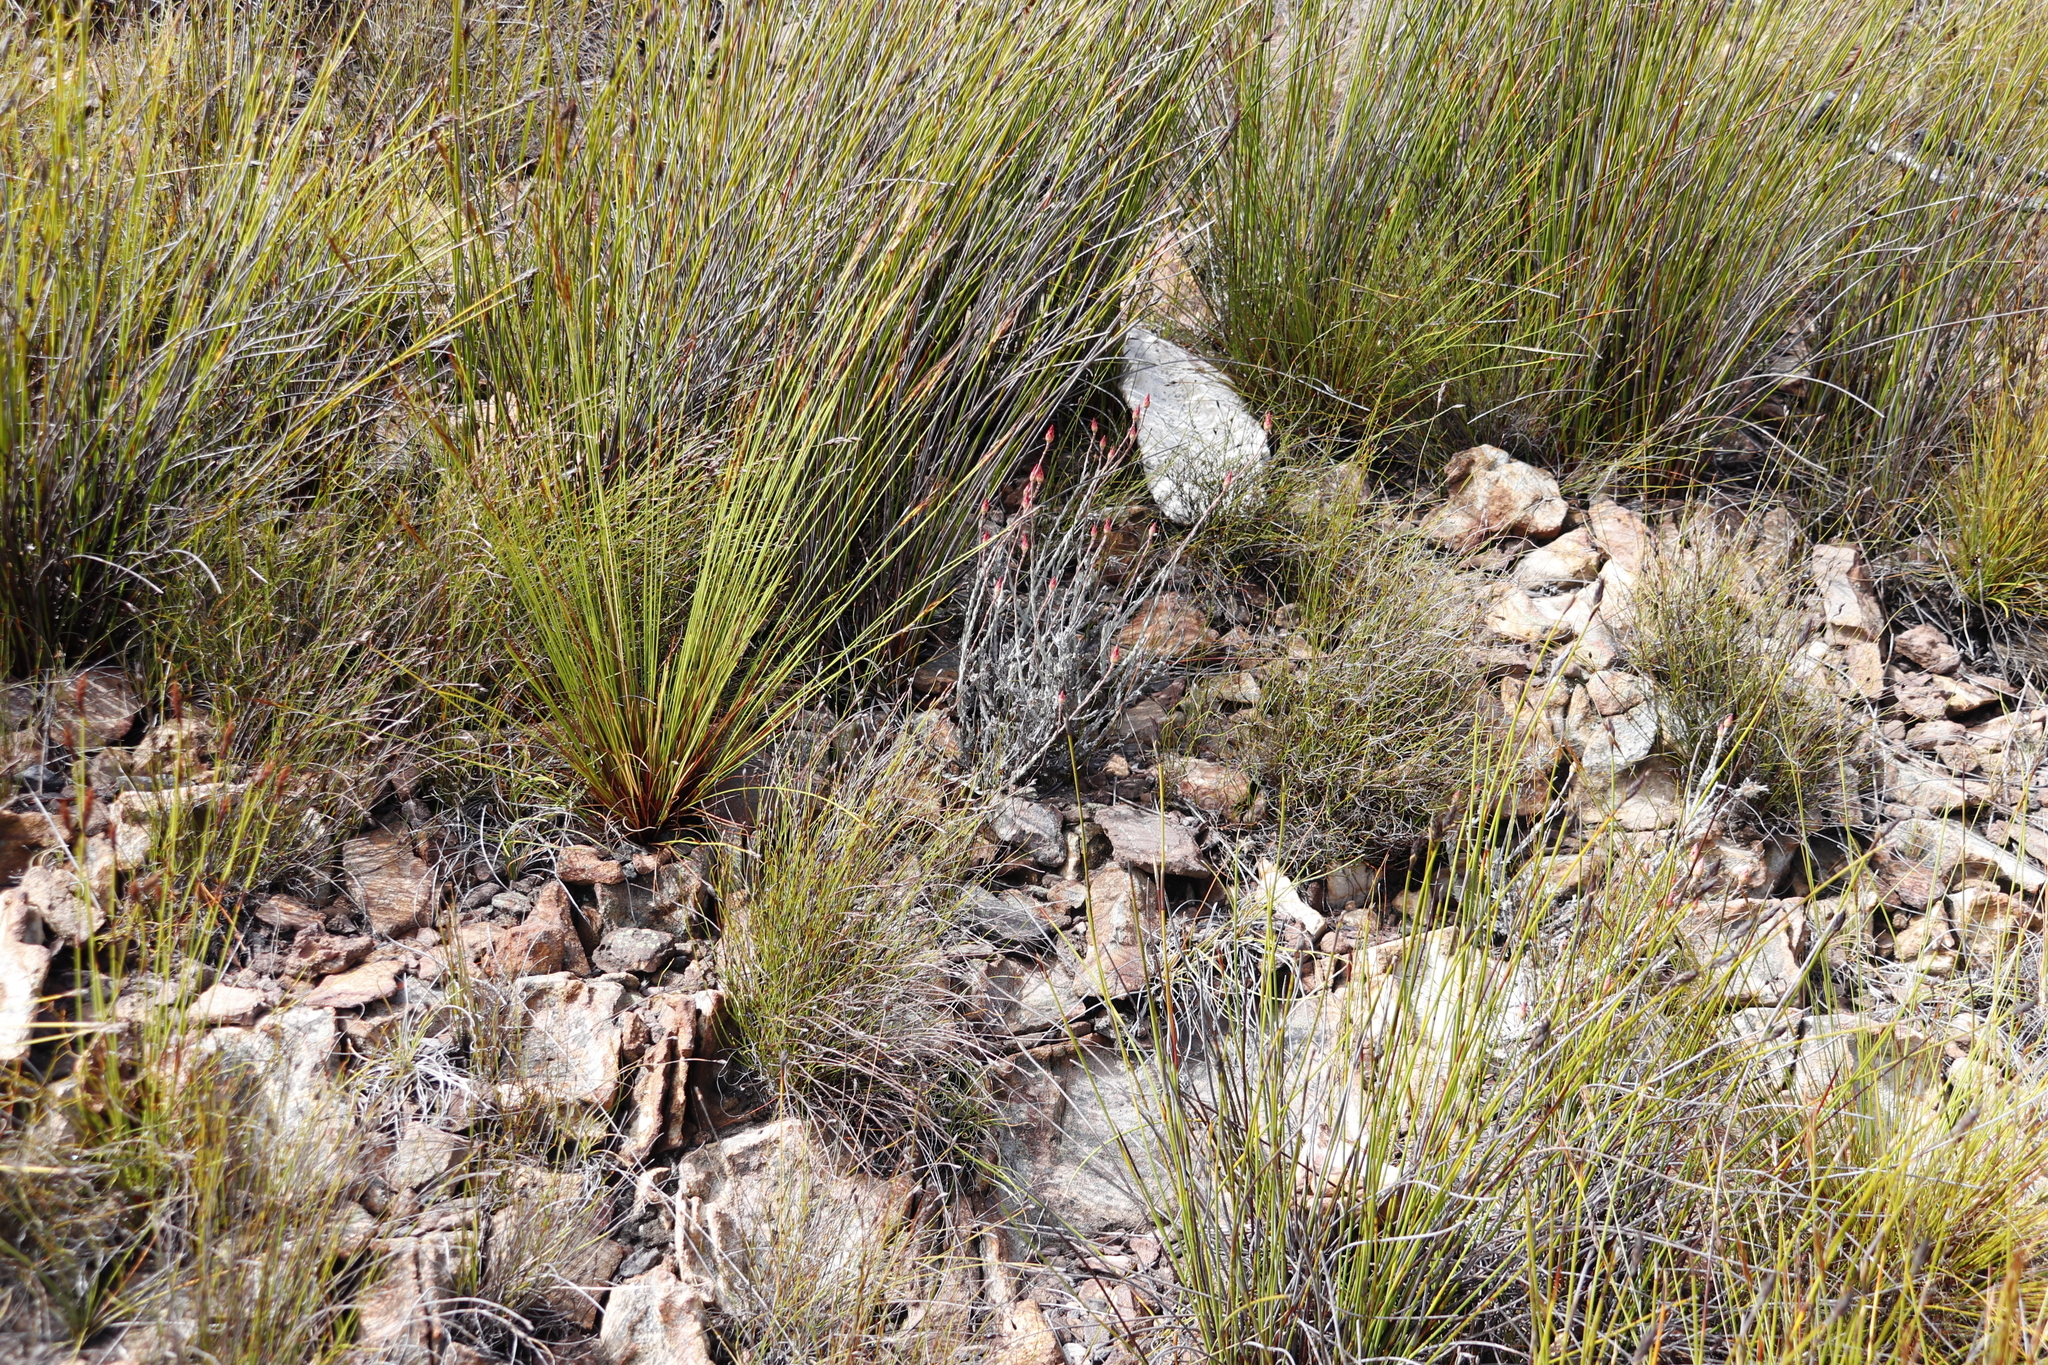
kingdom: Plantae
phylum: Tracheophyta
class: Magnoliopsida
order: Asterales
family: Asteraceae
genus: Syncarpha
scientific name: Syncarpha canescens
